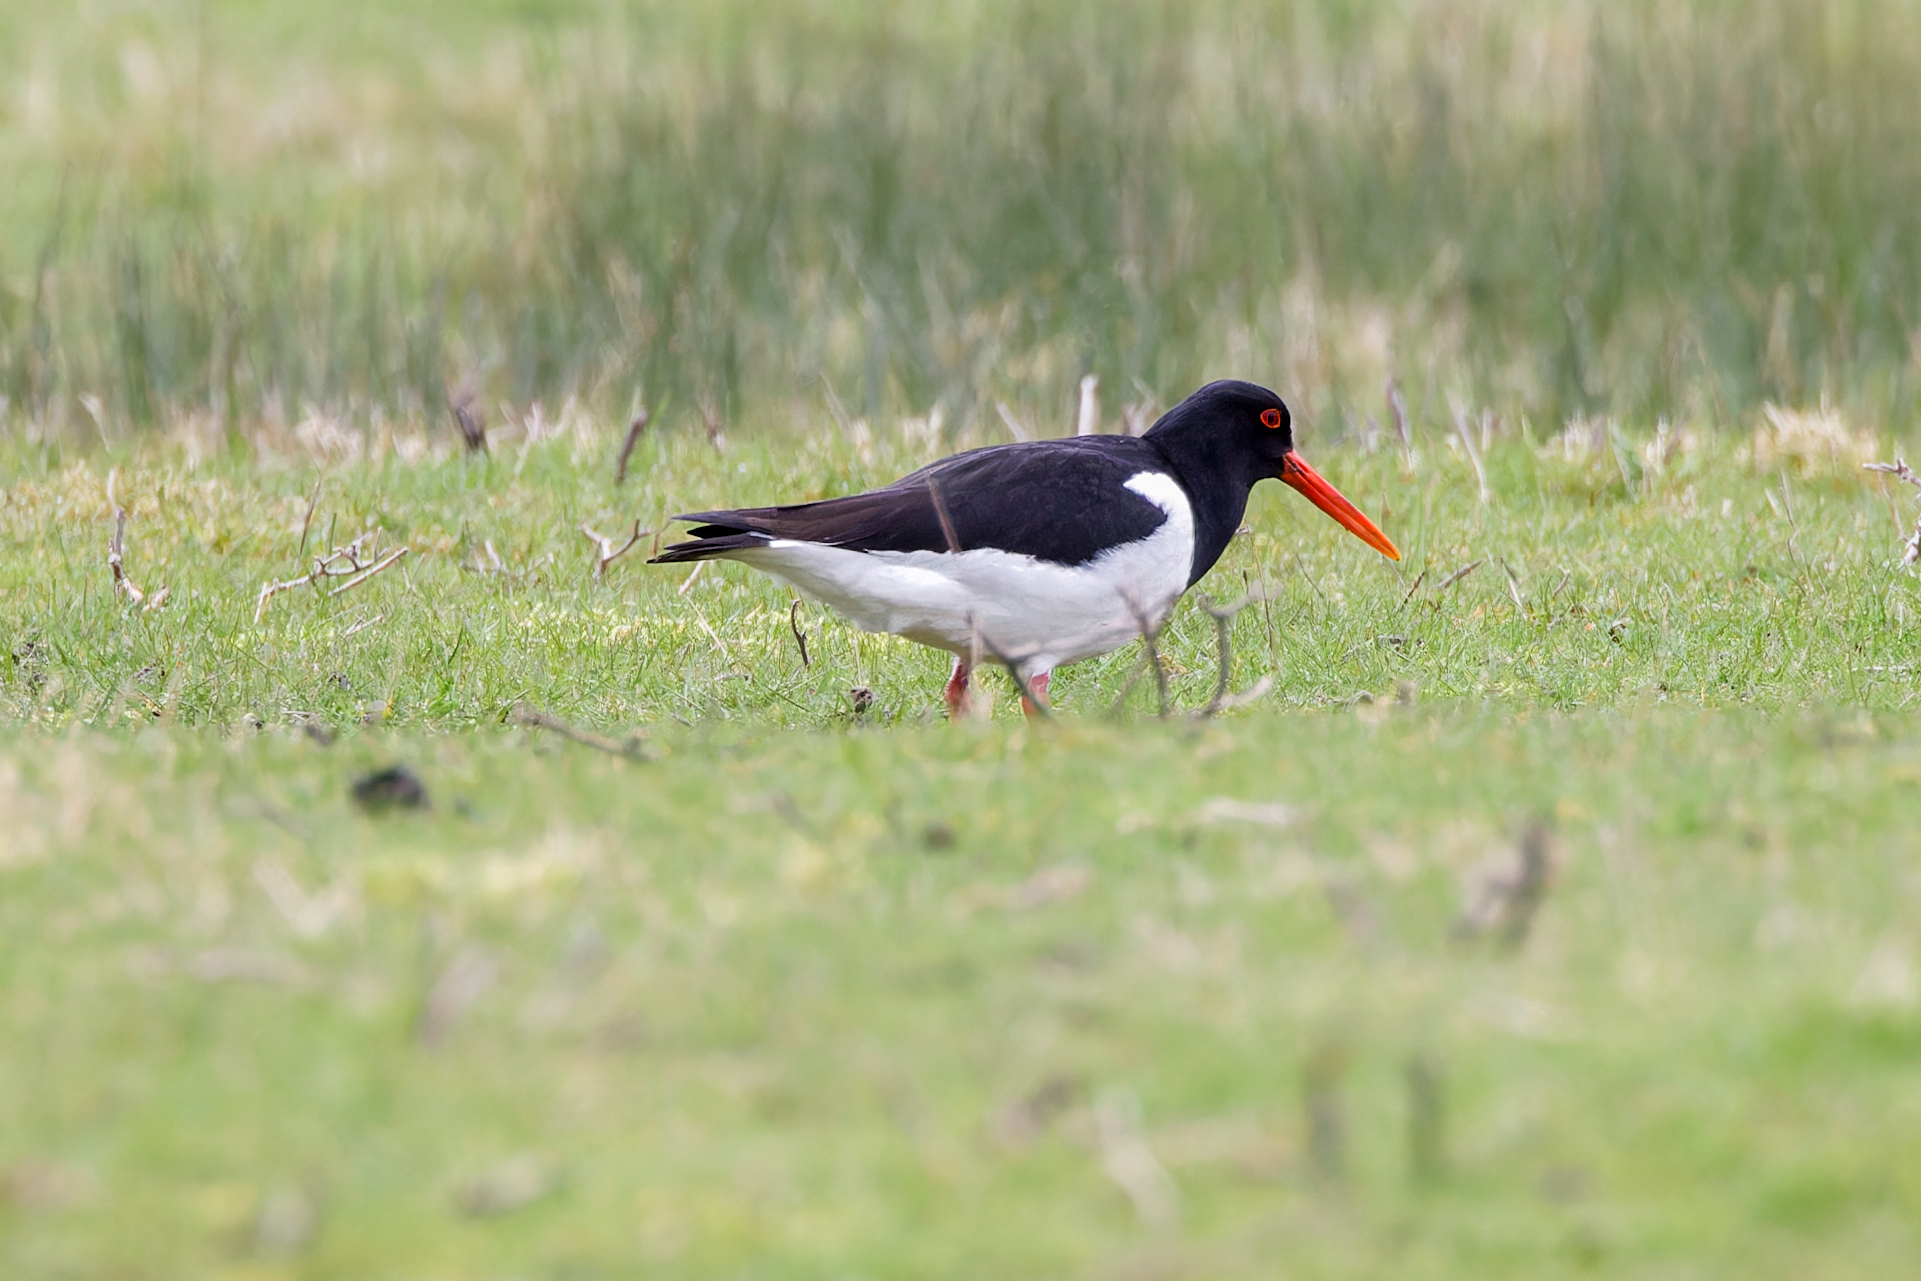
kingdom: Animalia
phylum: Chordata
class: Aves
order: Charadriiformes
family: Haematopodidae
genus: Haematopus
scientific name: Haematopus ostralegus
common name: Eurasian oystercatcher
